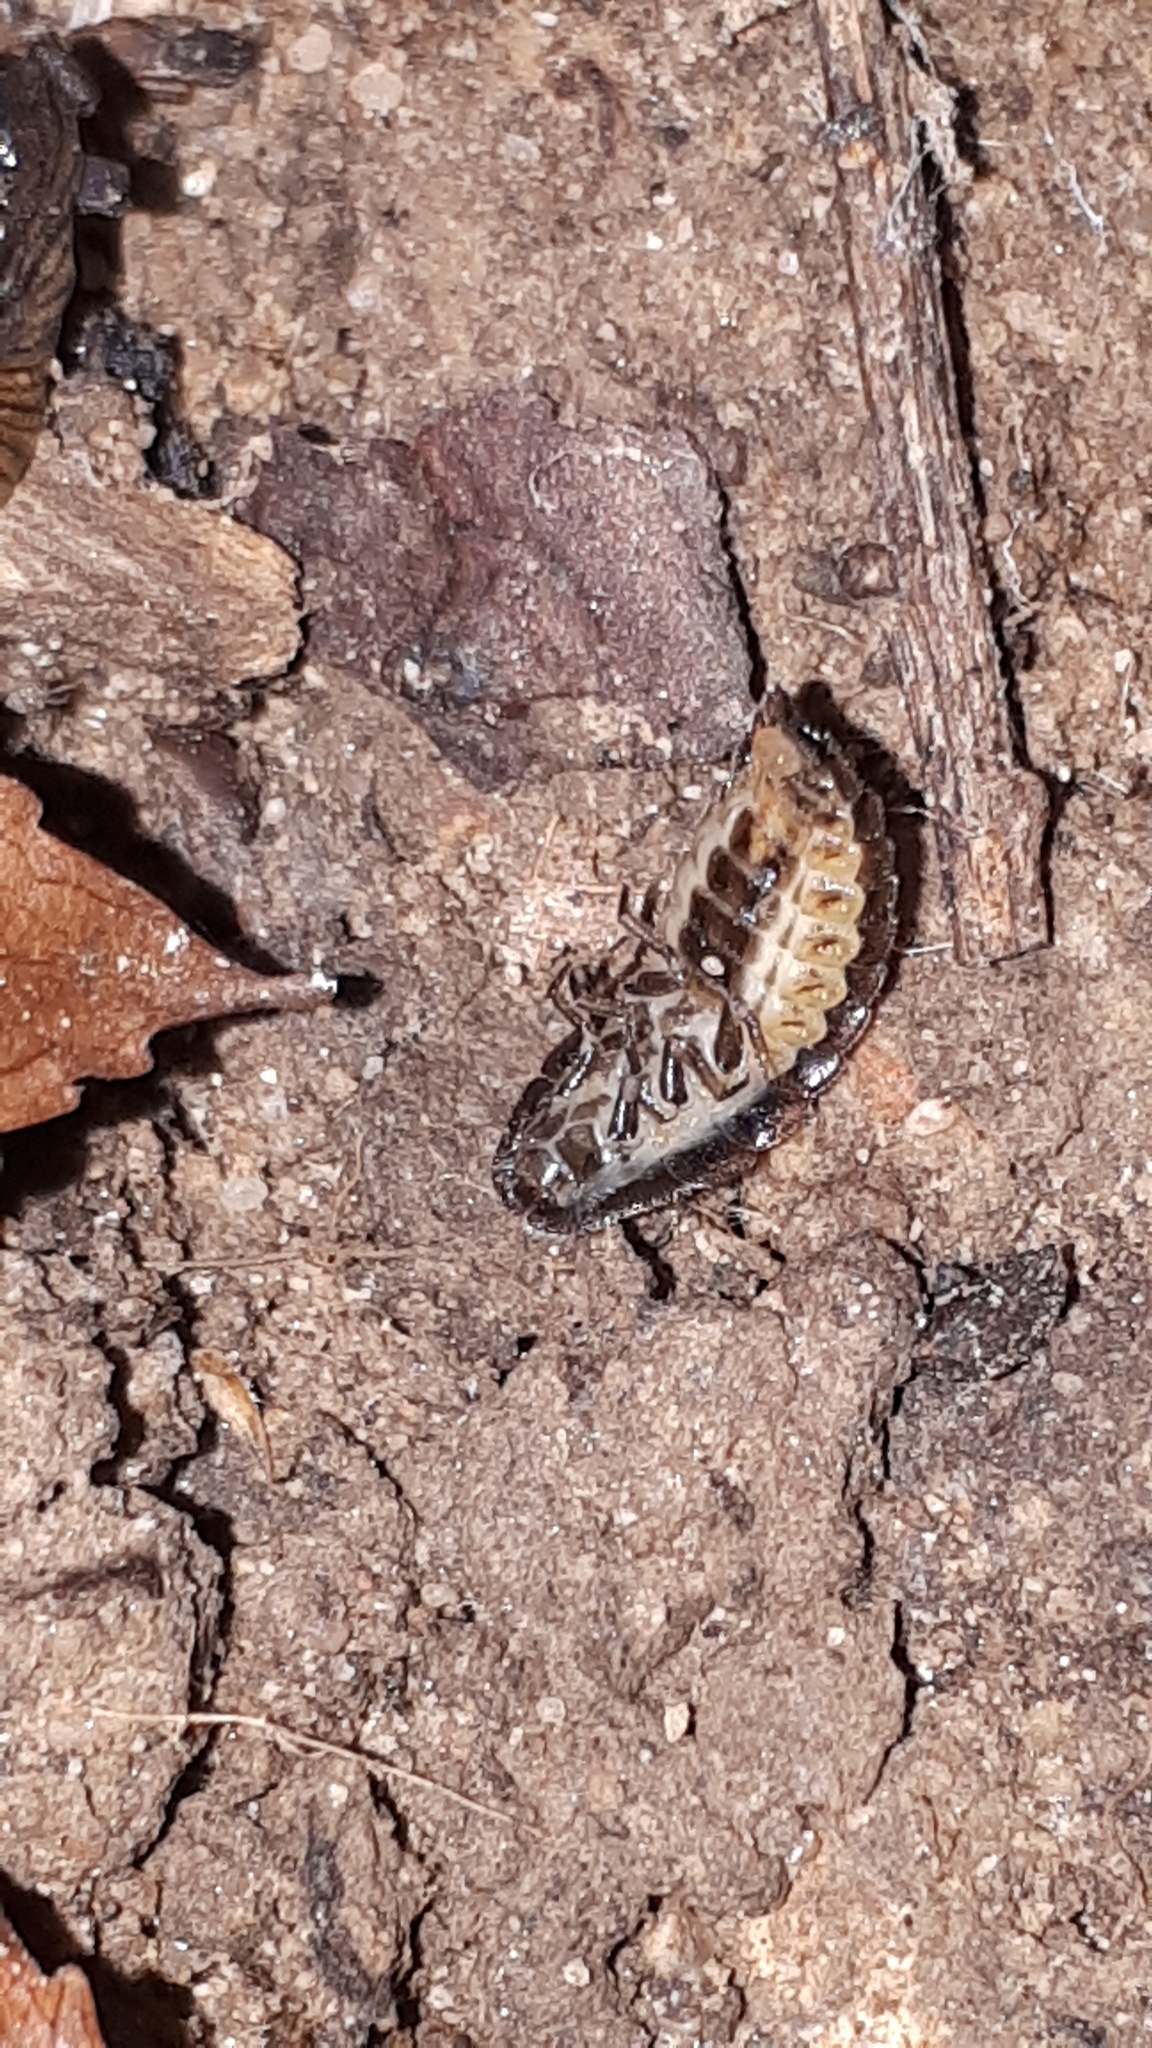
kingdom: Animalia
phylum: Arthropoda
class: Insecta
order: Coleoptera
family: Lampyridae
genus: Lamprohiza
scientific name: Lamprohiza splendidula
